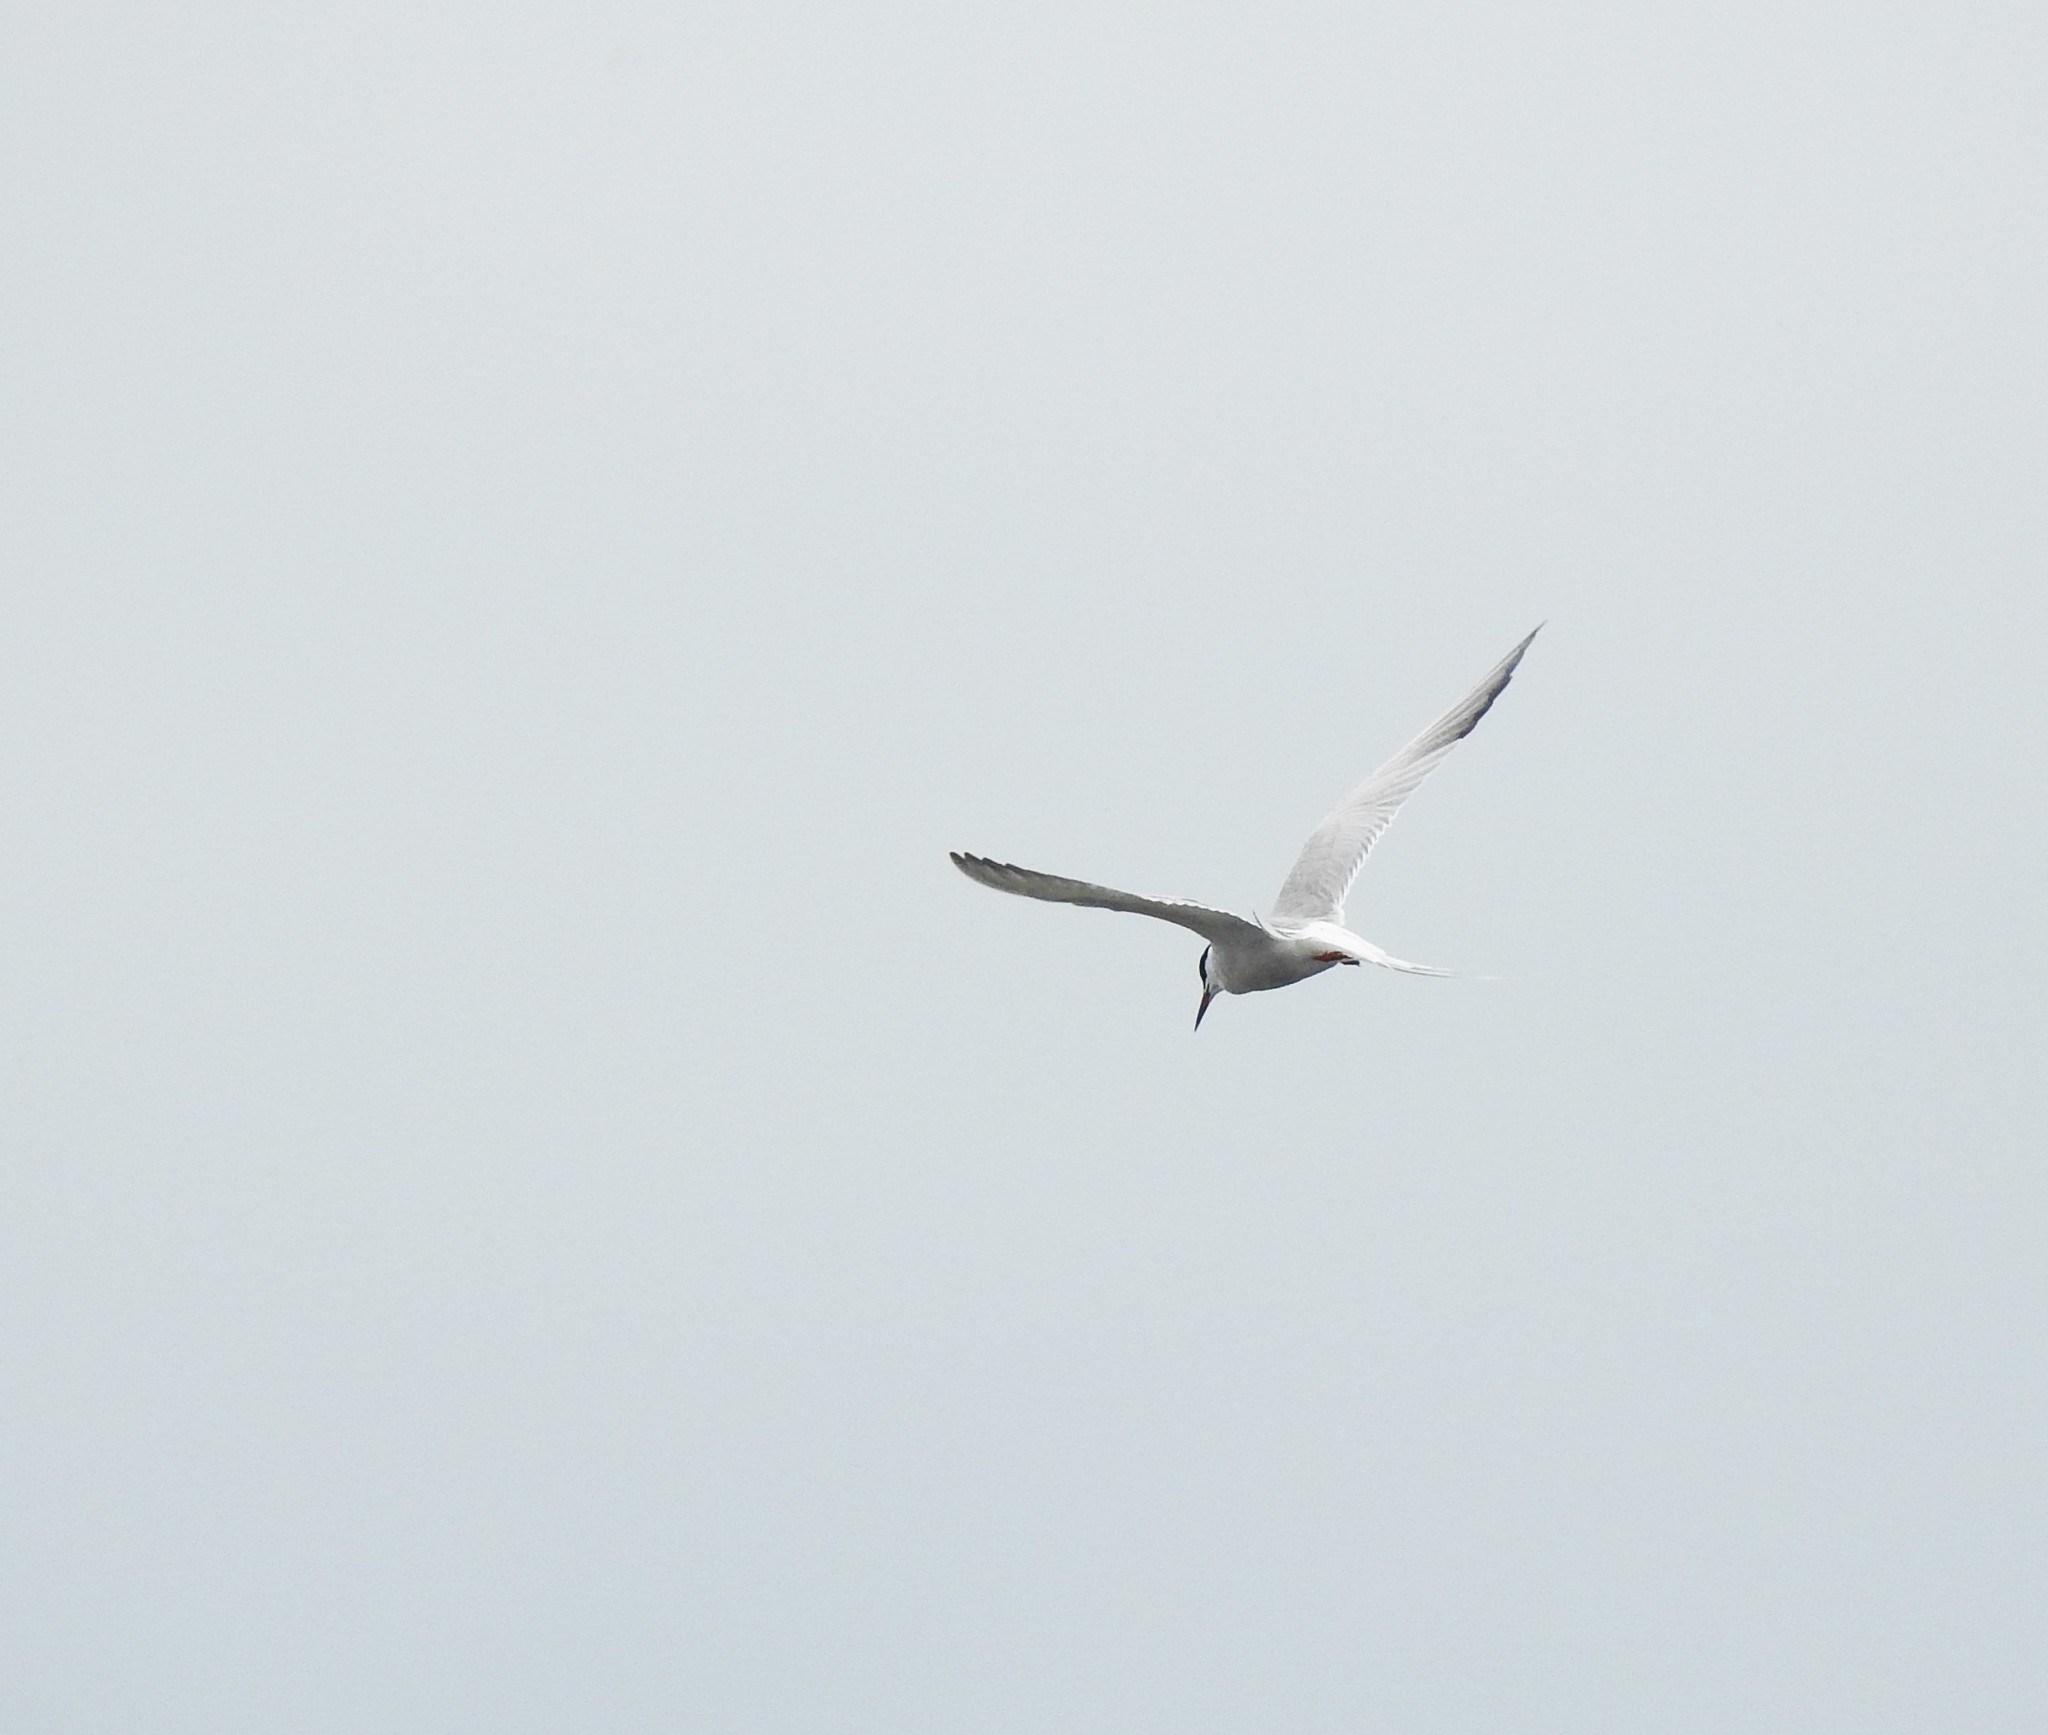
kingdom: Animalia
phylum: Chordata
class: Aves
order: Charadriiformes
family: Laridae
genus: Sterna
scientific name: Sterna hirundo
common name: Common tern
